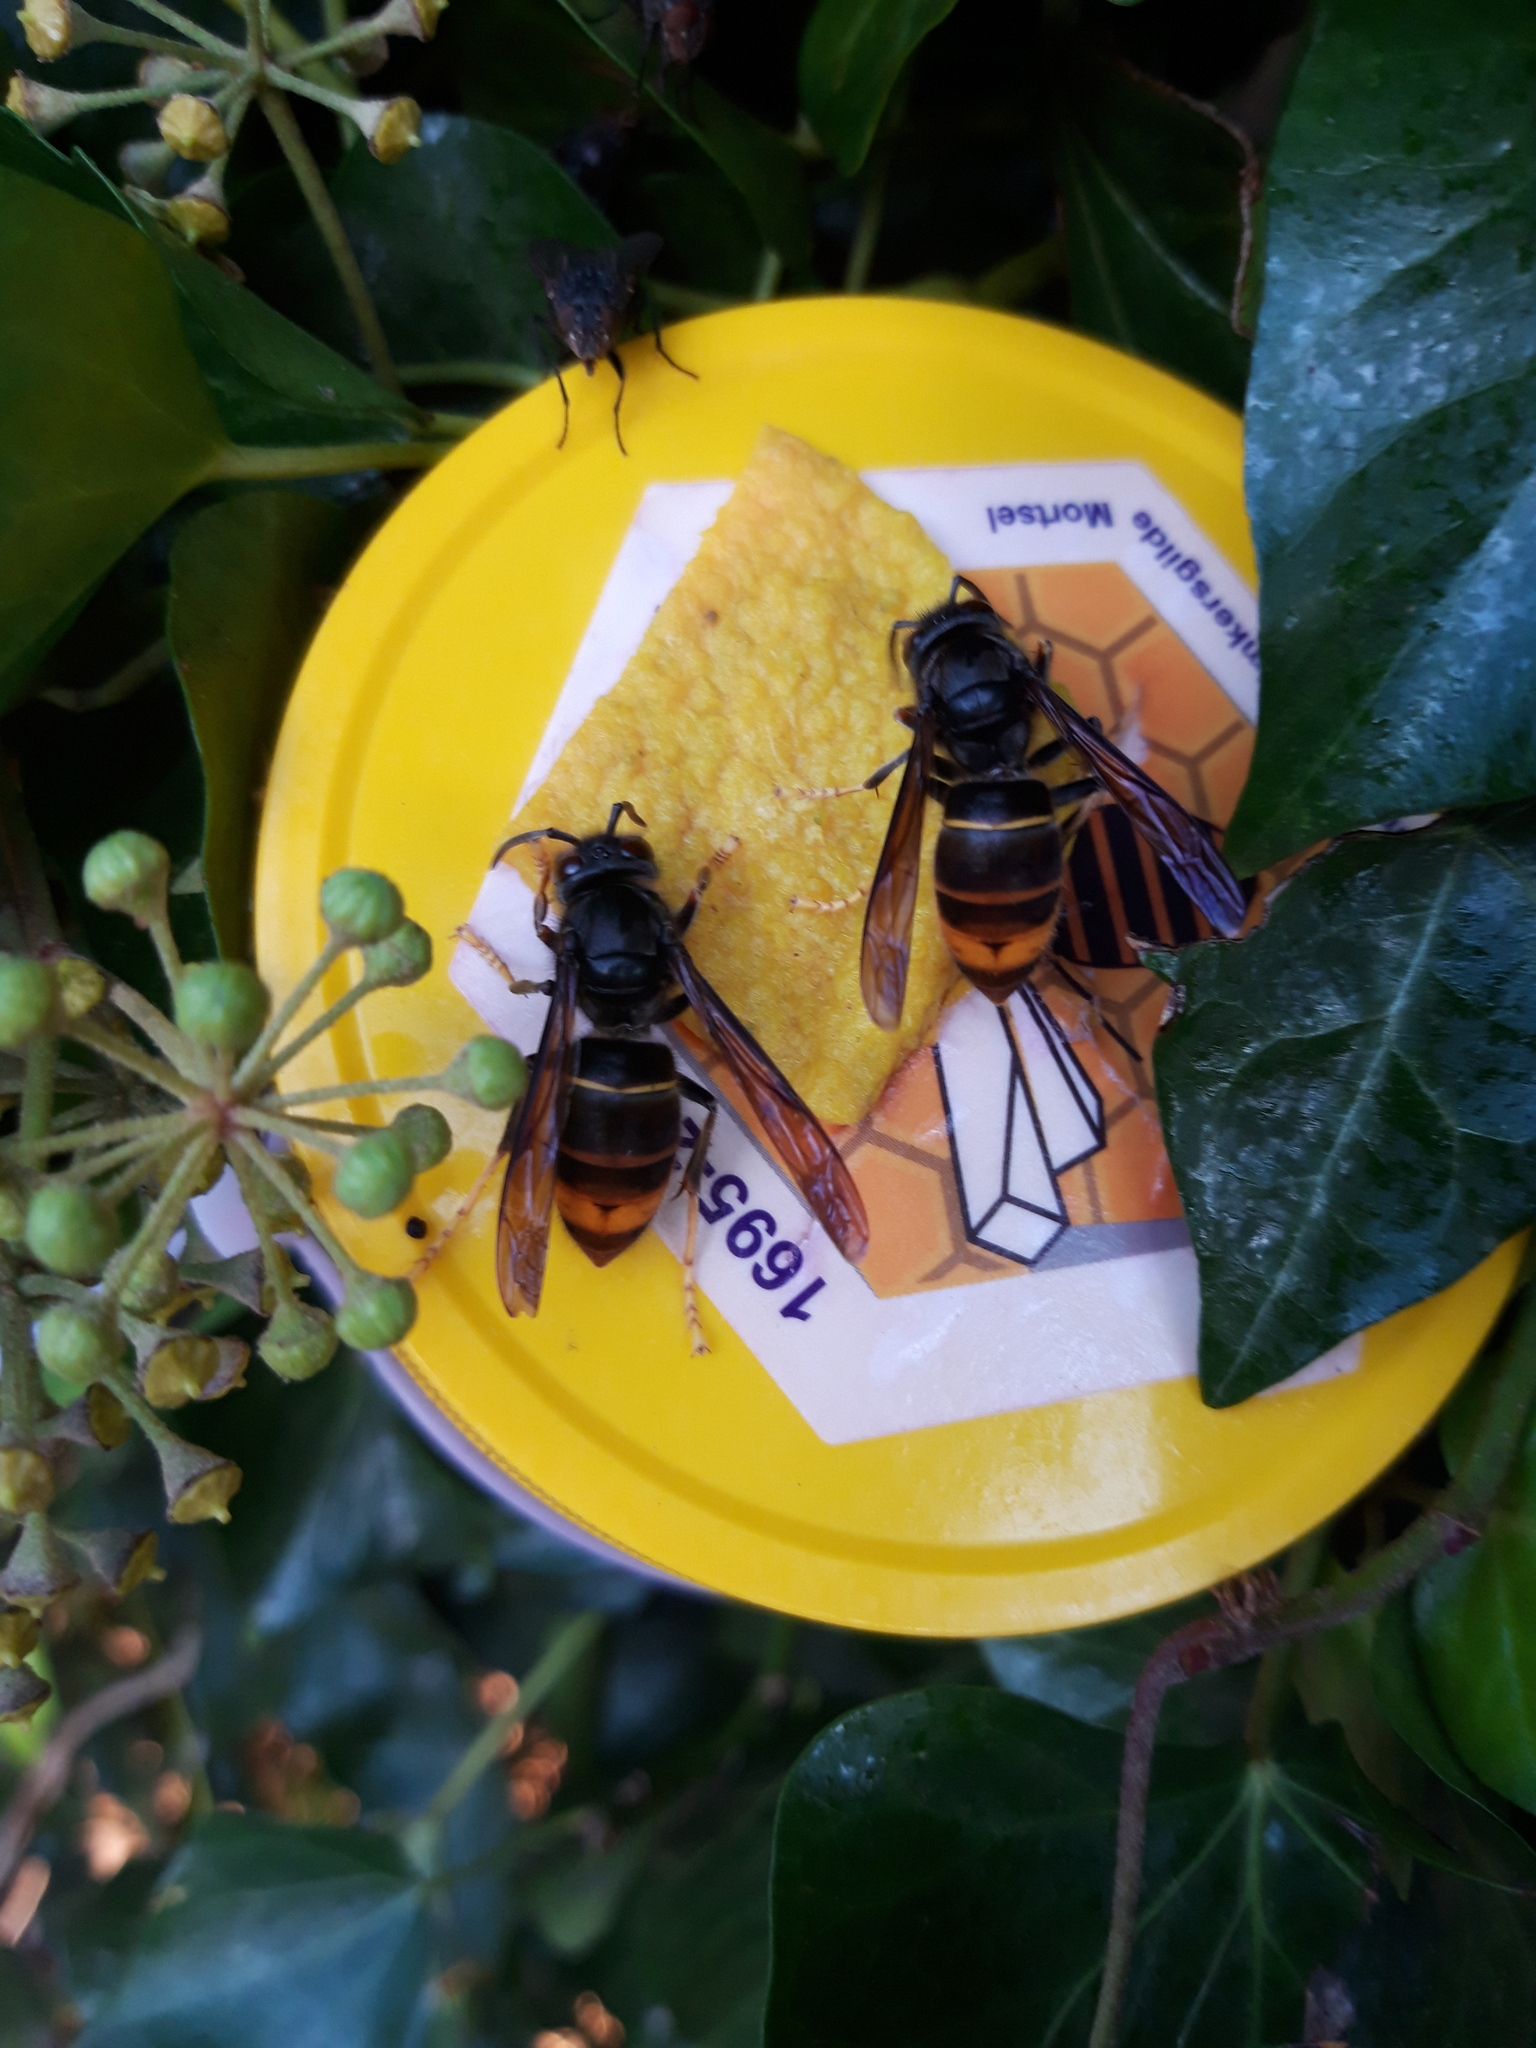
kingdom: Animalia
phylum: Arthropoda
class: Insecta
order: Hymenoptera
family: Vespidae
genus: Vespa
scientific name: Vespa velutina
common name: Asian hornet
